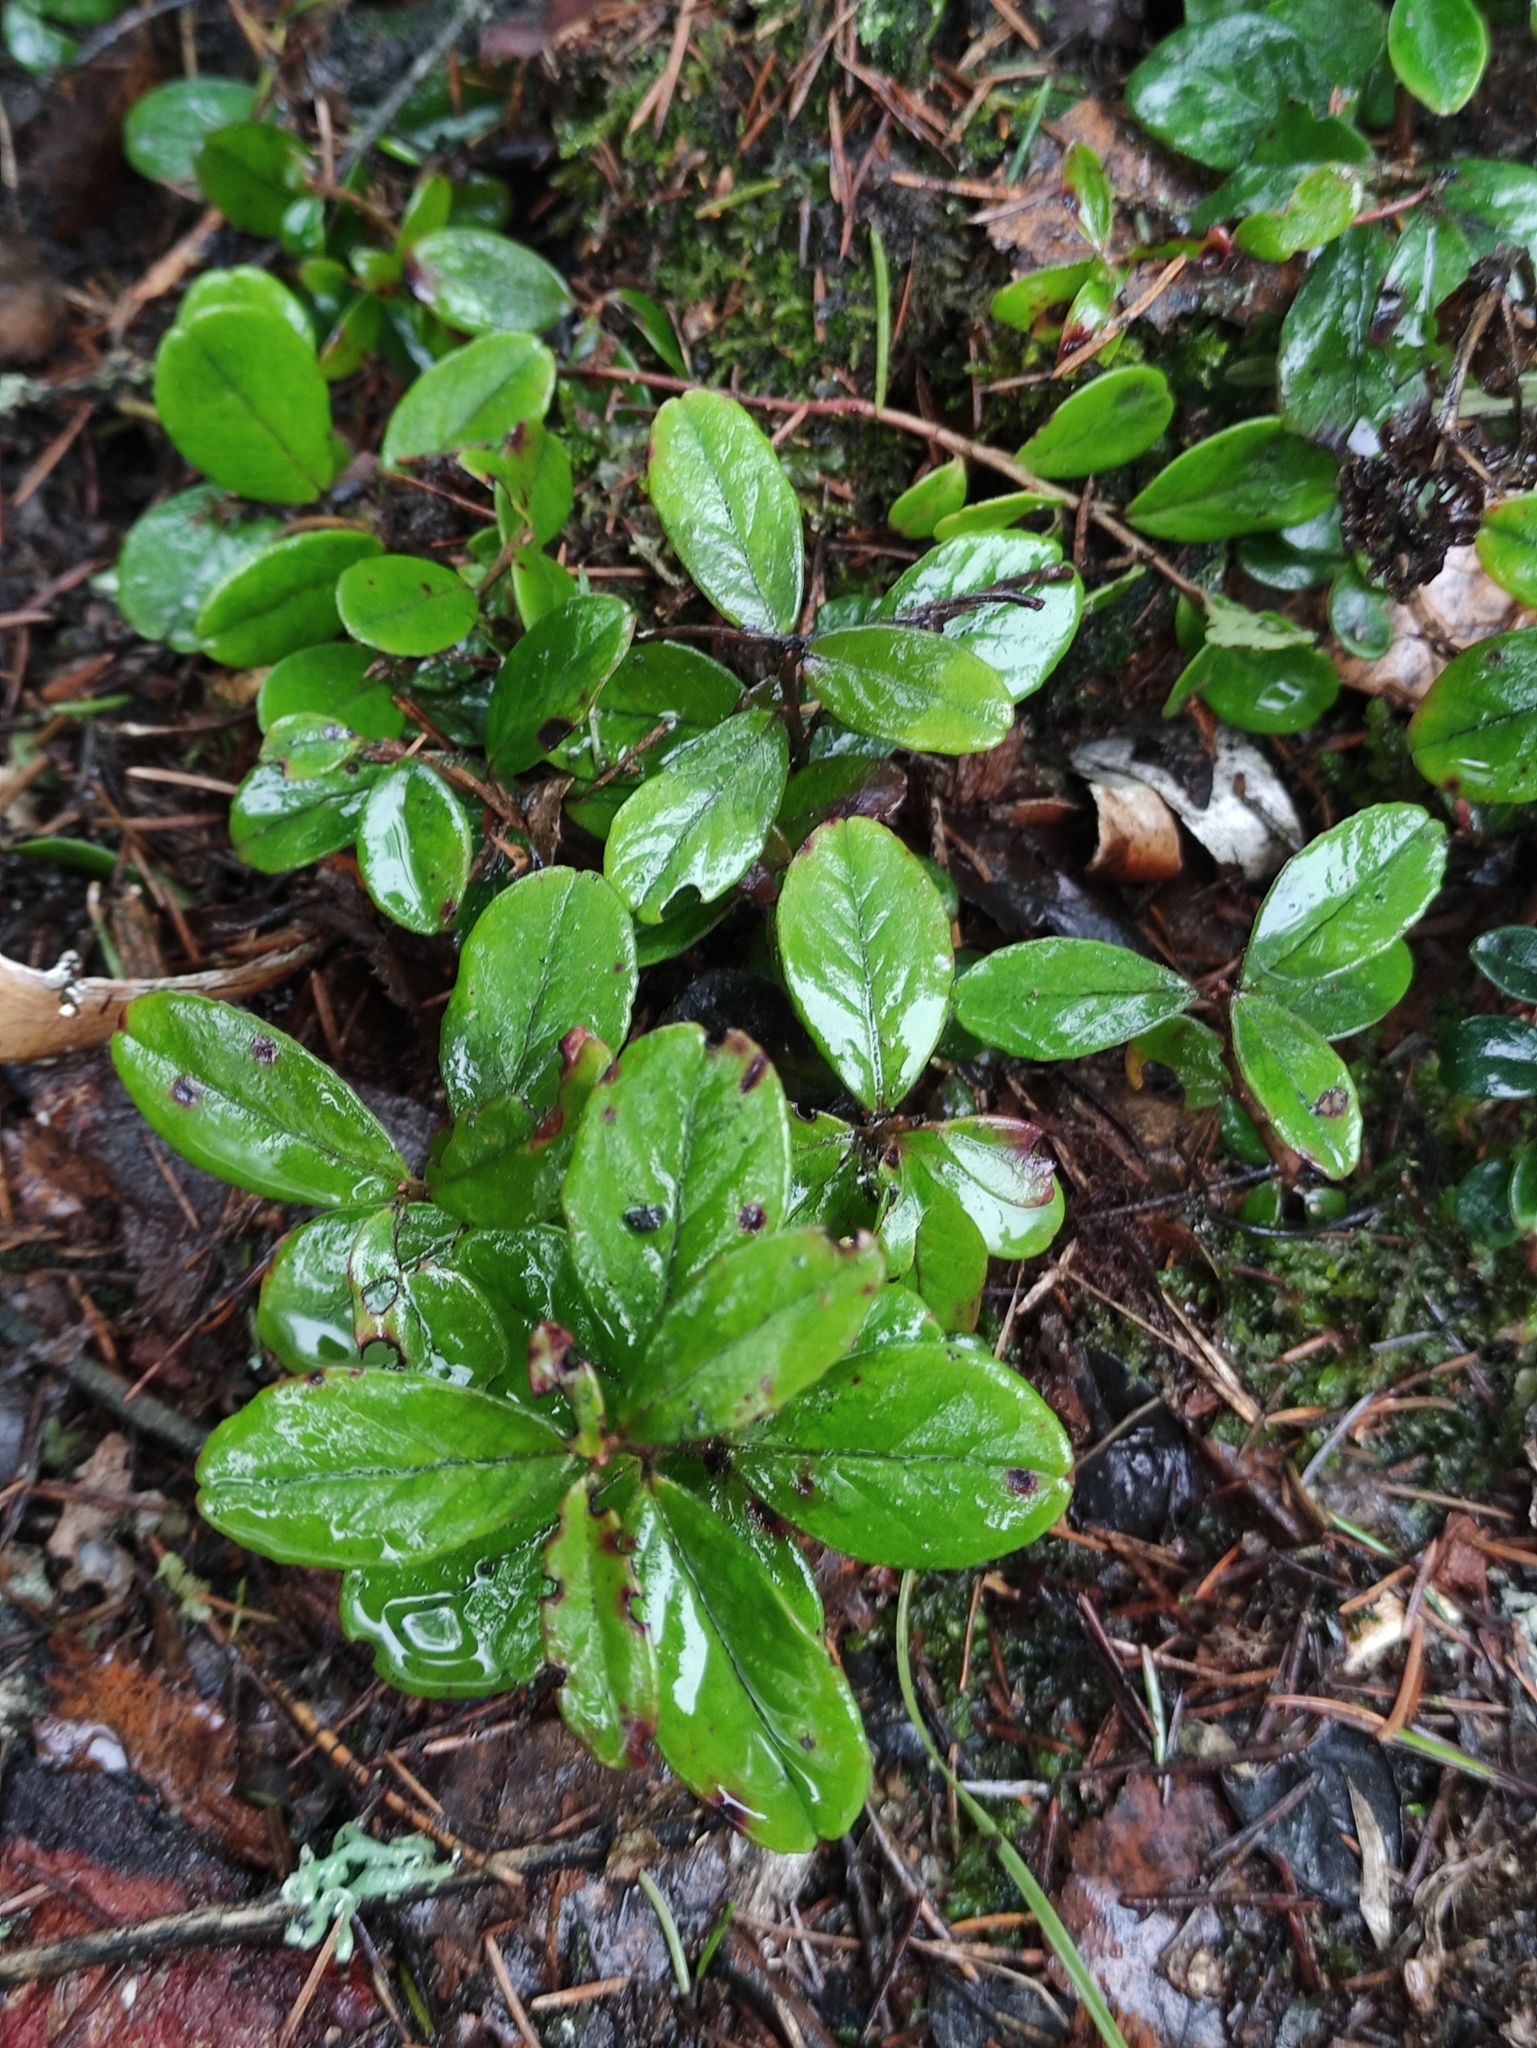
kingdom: Plantae
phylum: Tracheophyta
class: Magnoliopsida
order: Ericales
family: Ericaceae
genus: Vaccinium
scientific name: Vaccinium vitis-idaea
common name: Cowberry
